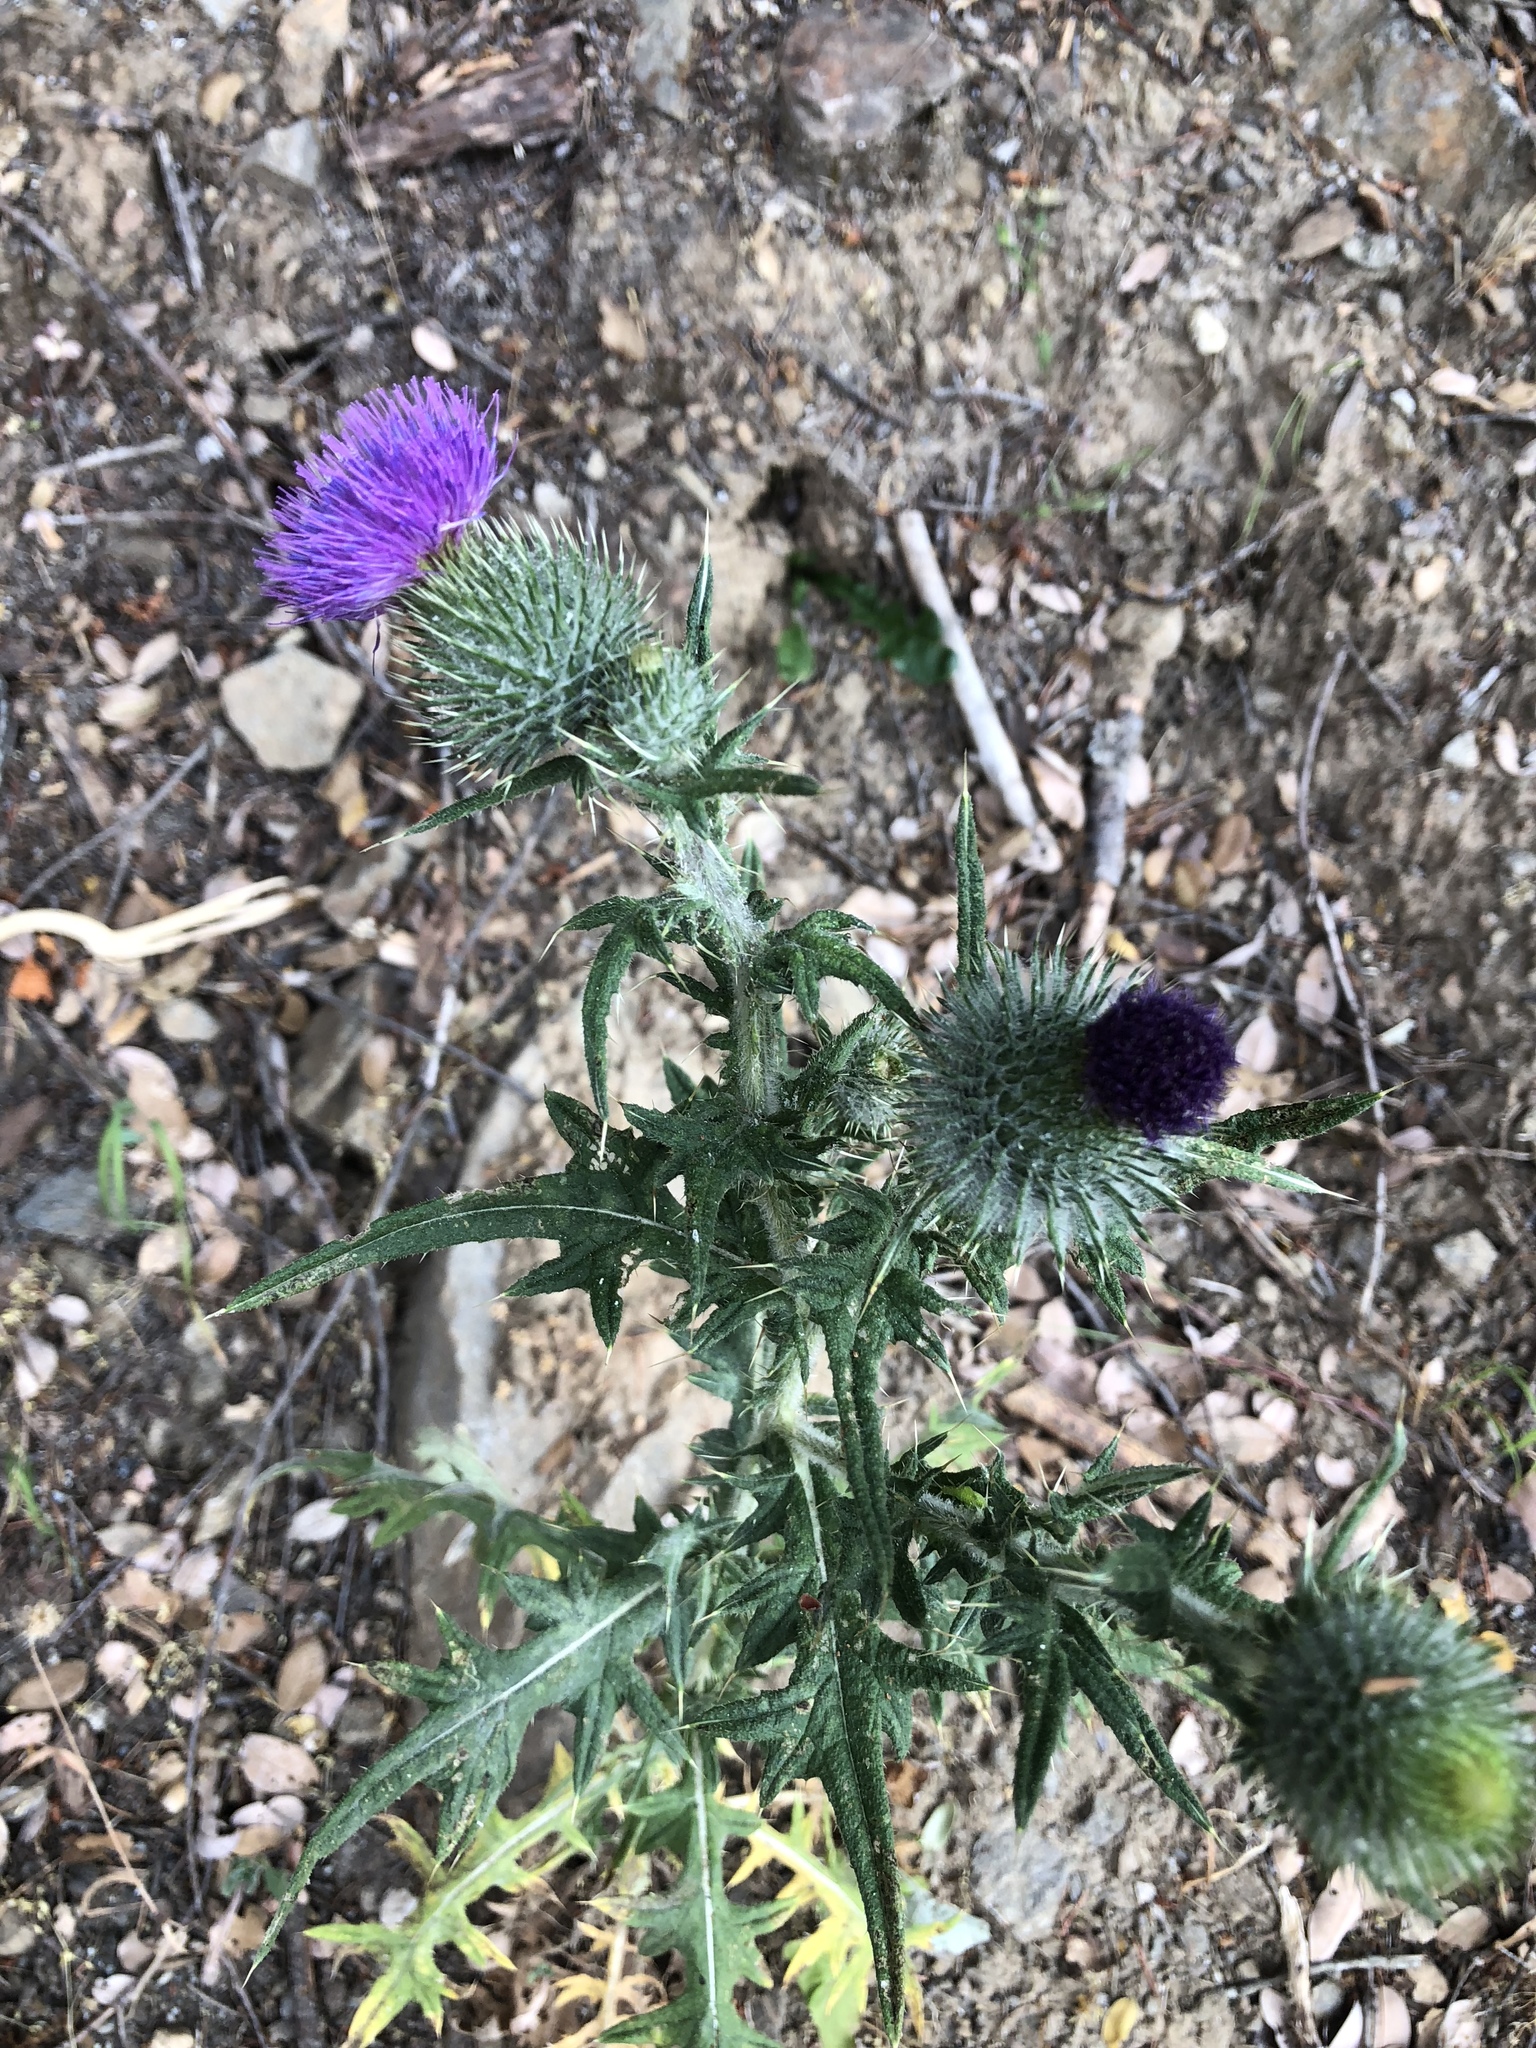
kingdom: Plantae
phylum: Tracheophyta
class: Magnoliopsida
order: Asterales
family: Asteraceae
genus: Cirsium
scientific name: Cirsium vulgare
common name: Bull thistle
